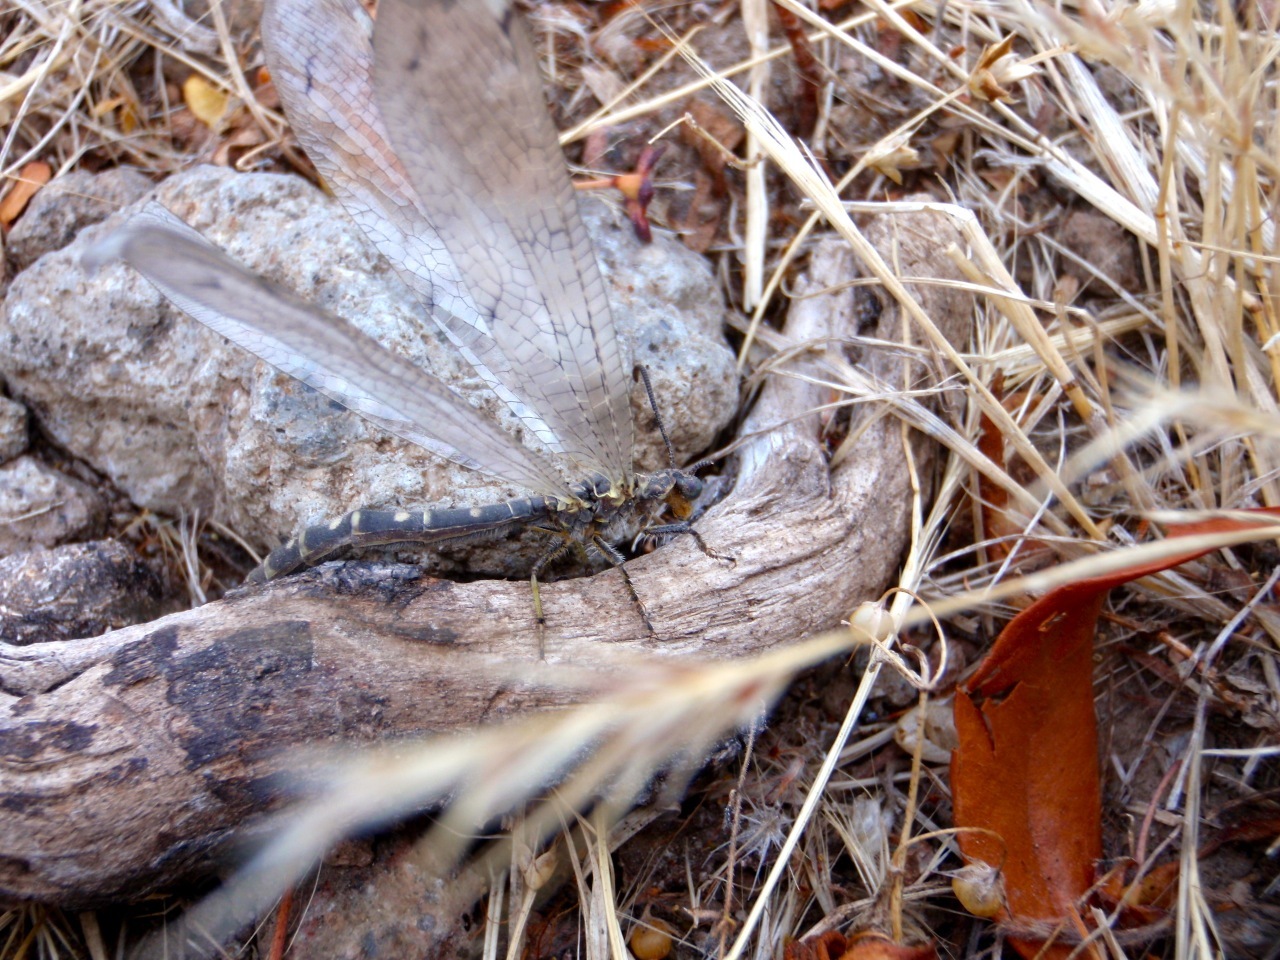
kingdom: Animalia
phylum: Arthropoda
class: Insecta
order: Neuroptera
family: Myrmeleontidae
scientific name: Myrmeleontidae
